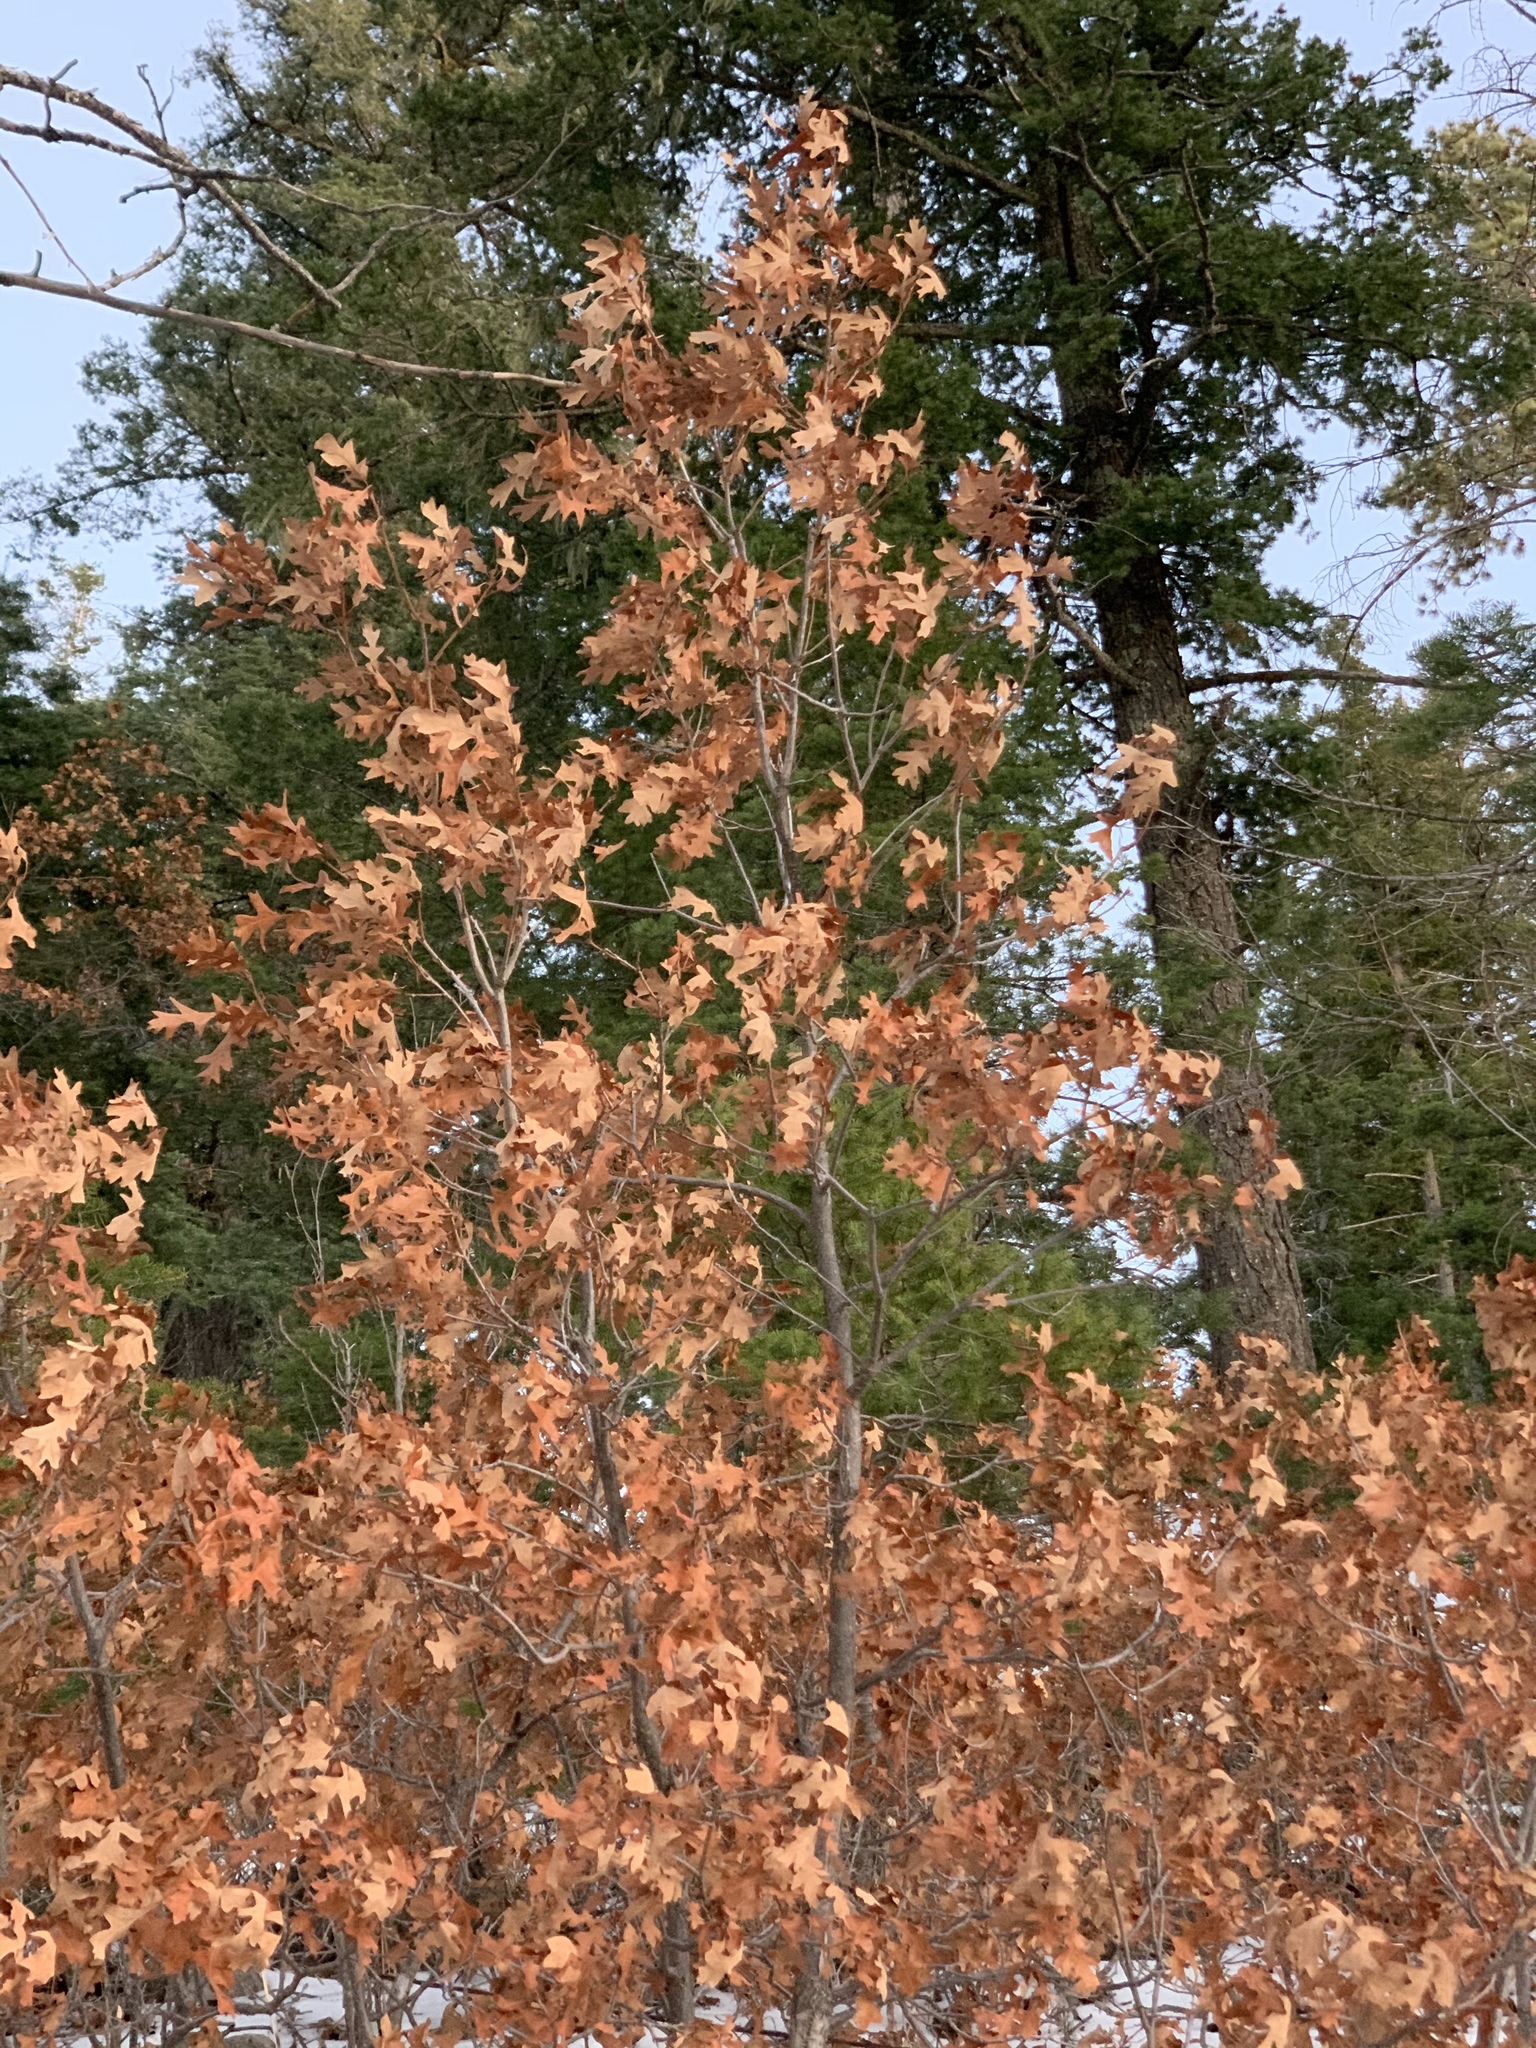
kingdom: Plantae
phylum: Tracheophyta
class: Magnoliopsida
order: Fagales
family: Fagaceae
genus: Quercus
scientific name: Quercus gambelii
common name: Gambel oak
